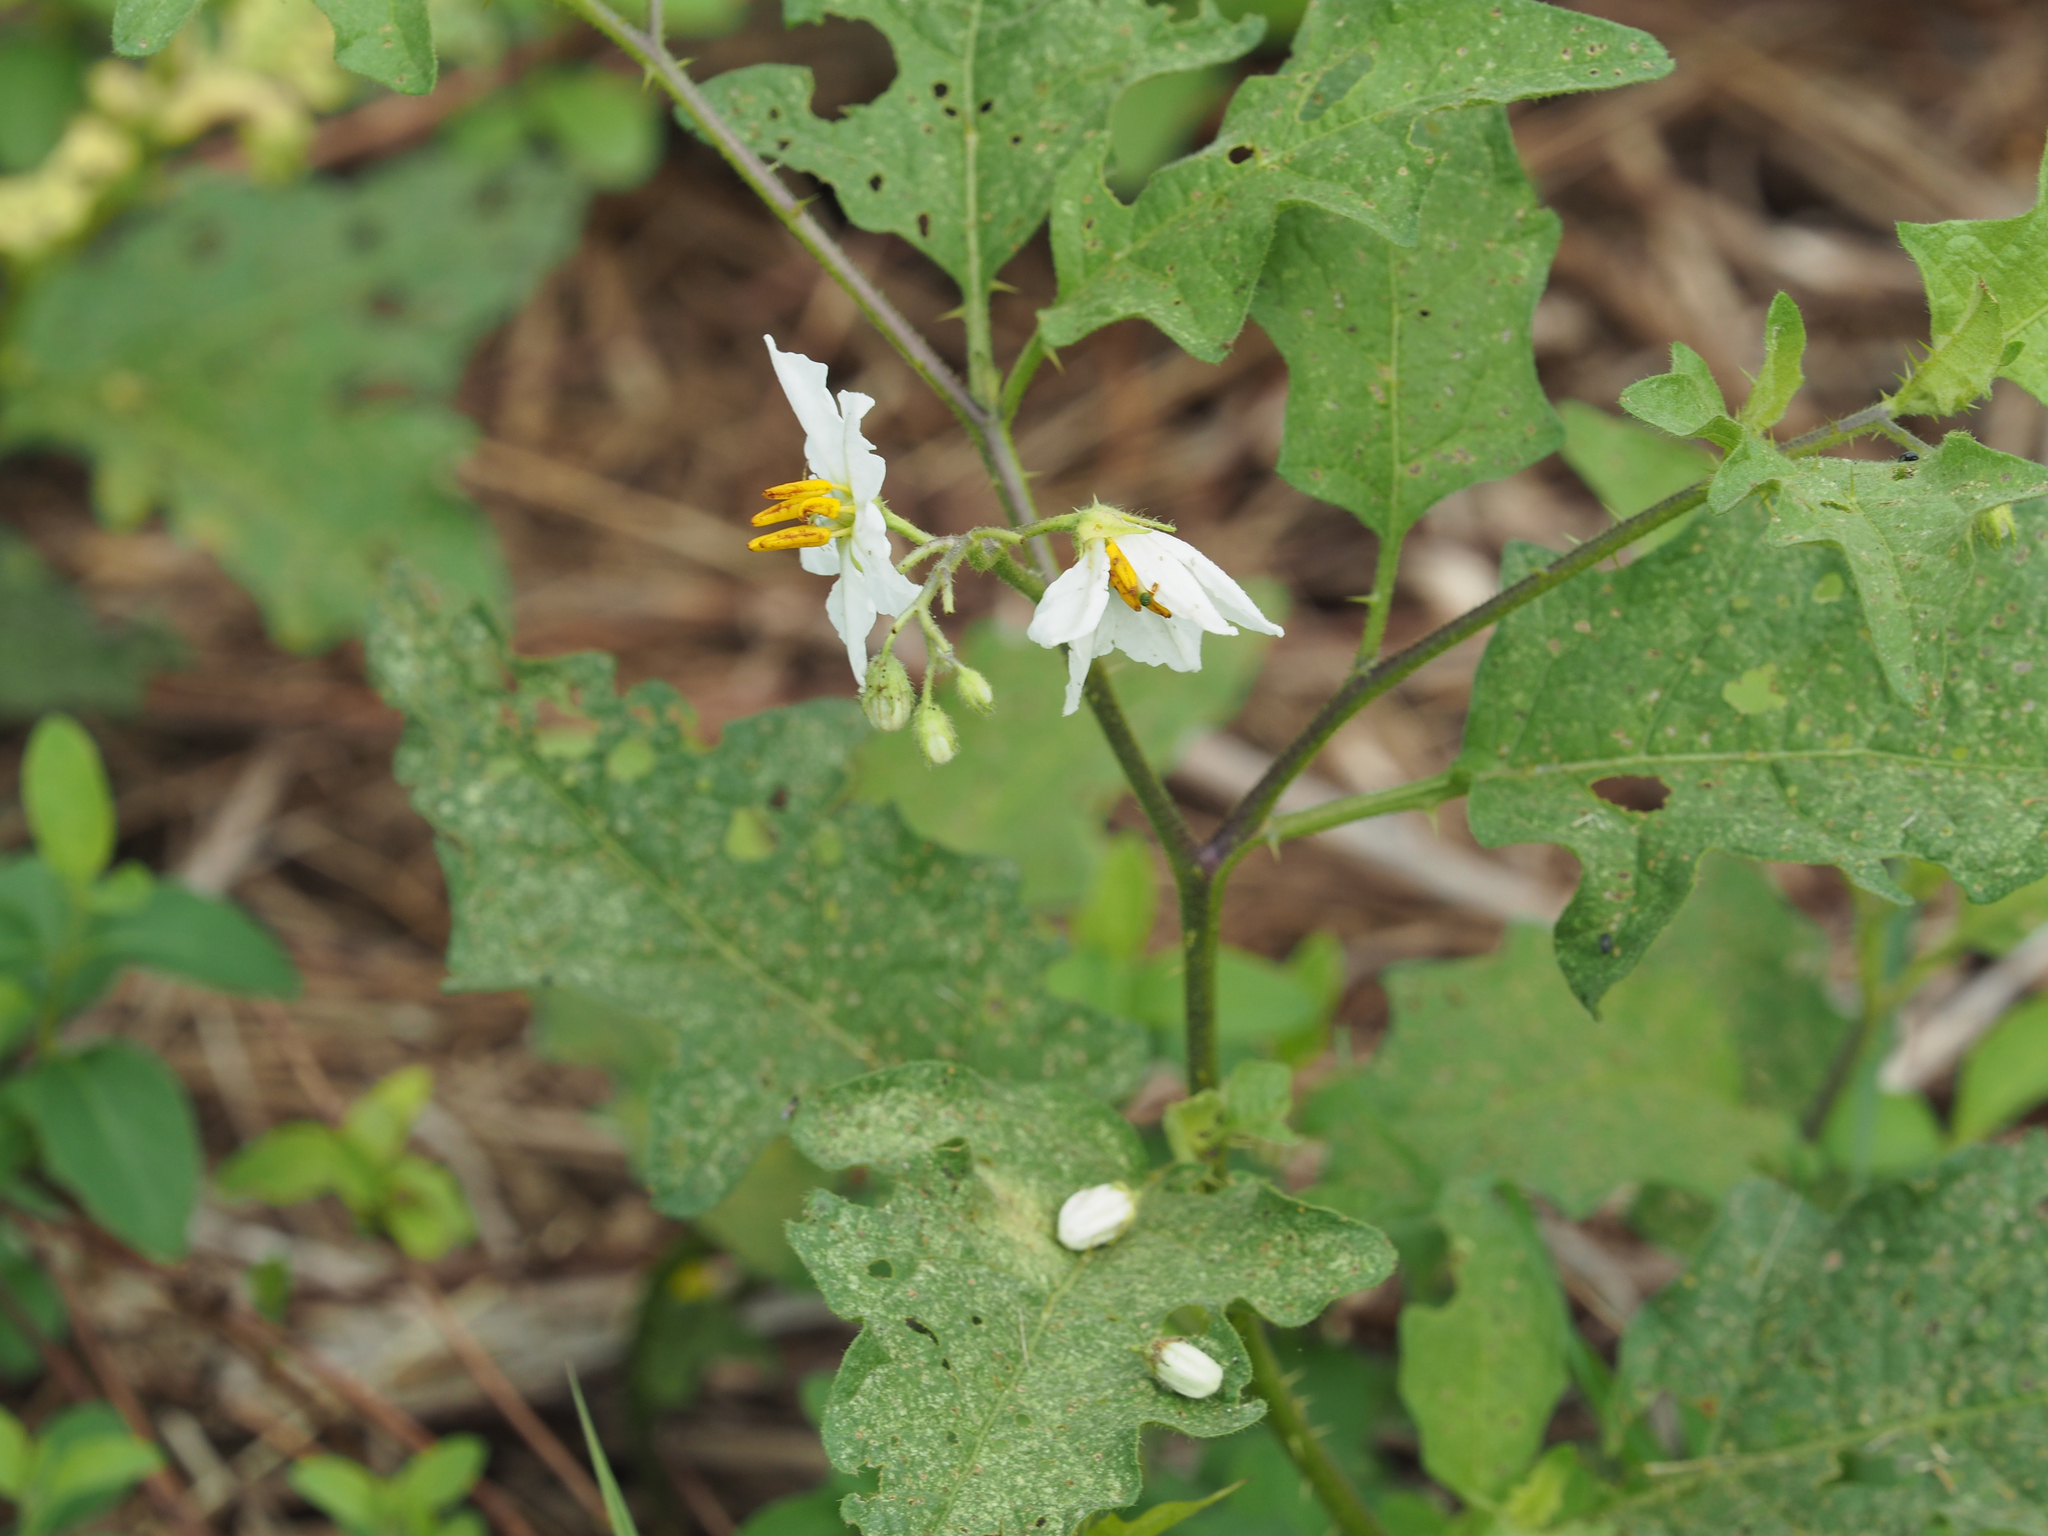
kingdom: Plantae
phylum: Tracheophyta
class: Magnoliopsida
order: Solanales
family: Solanaceae
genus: Solanum
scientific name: Solanum carolinense
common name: Horse-nettle
